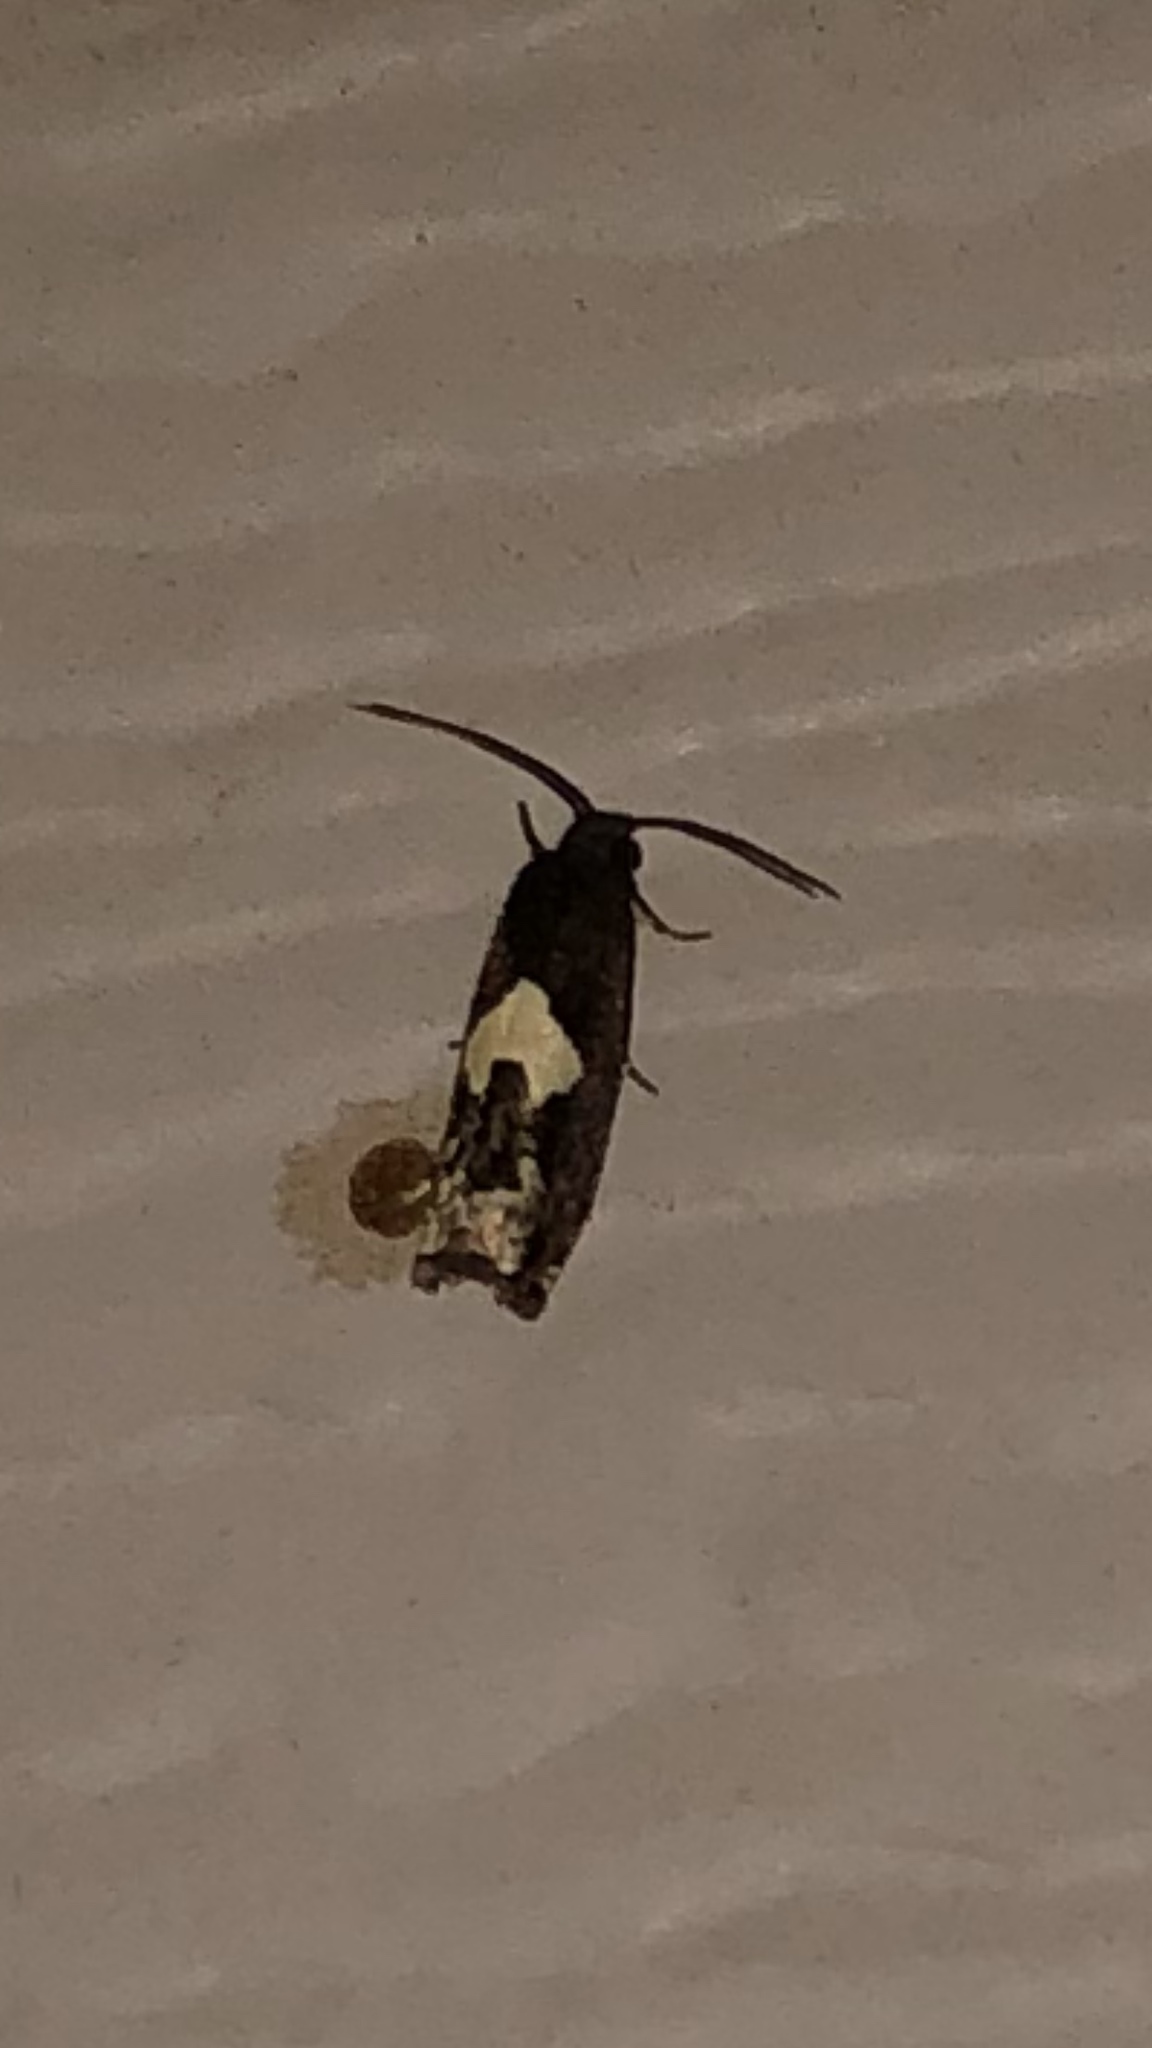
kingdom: Animalia
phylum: Arthropoda
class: Insecta
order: Lepidoptera
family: Tortricidae
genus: Epiblema
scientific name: Epiblema otiosana
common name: Bidens borer moth
